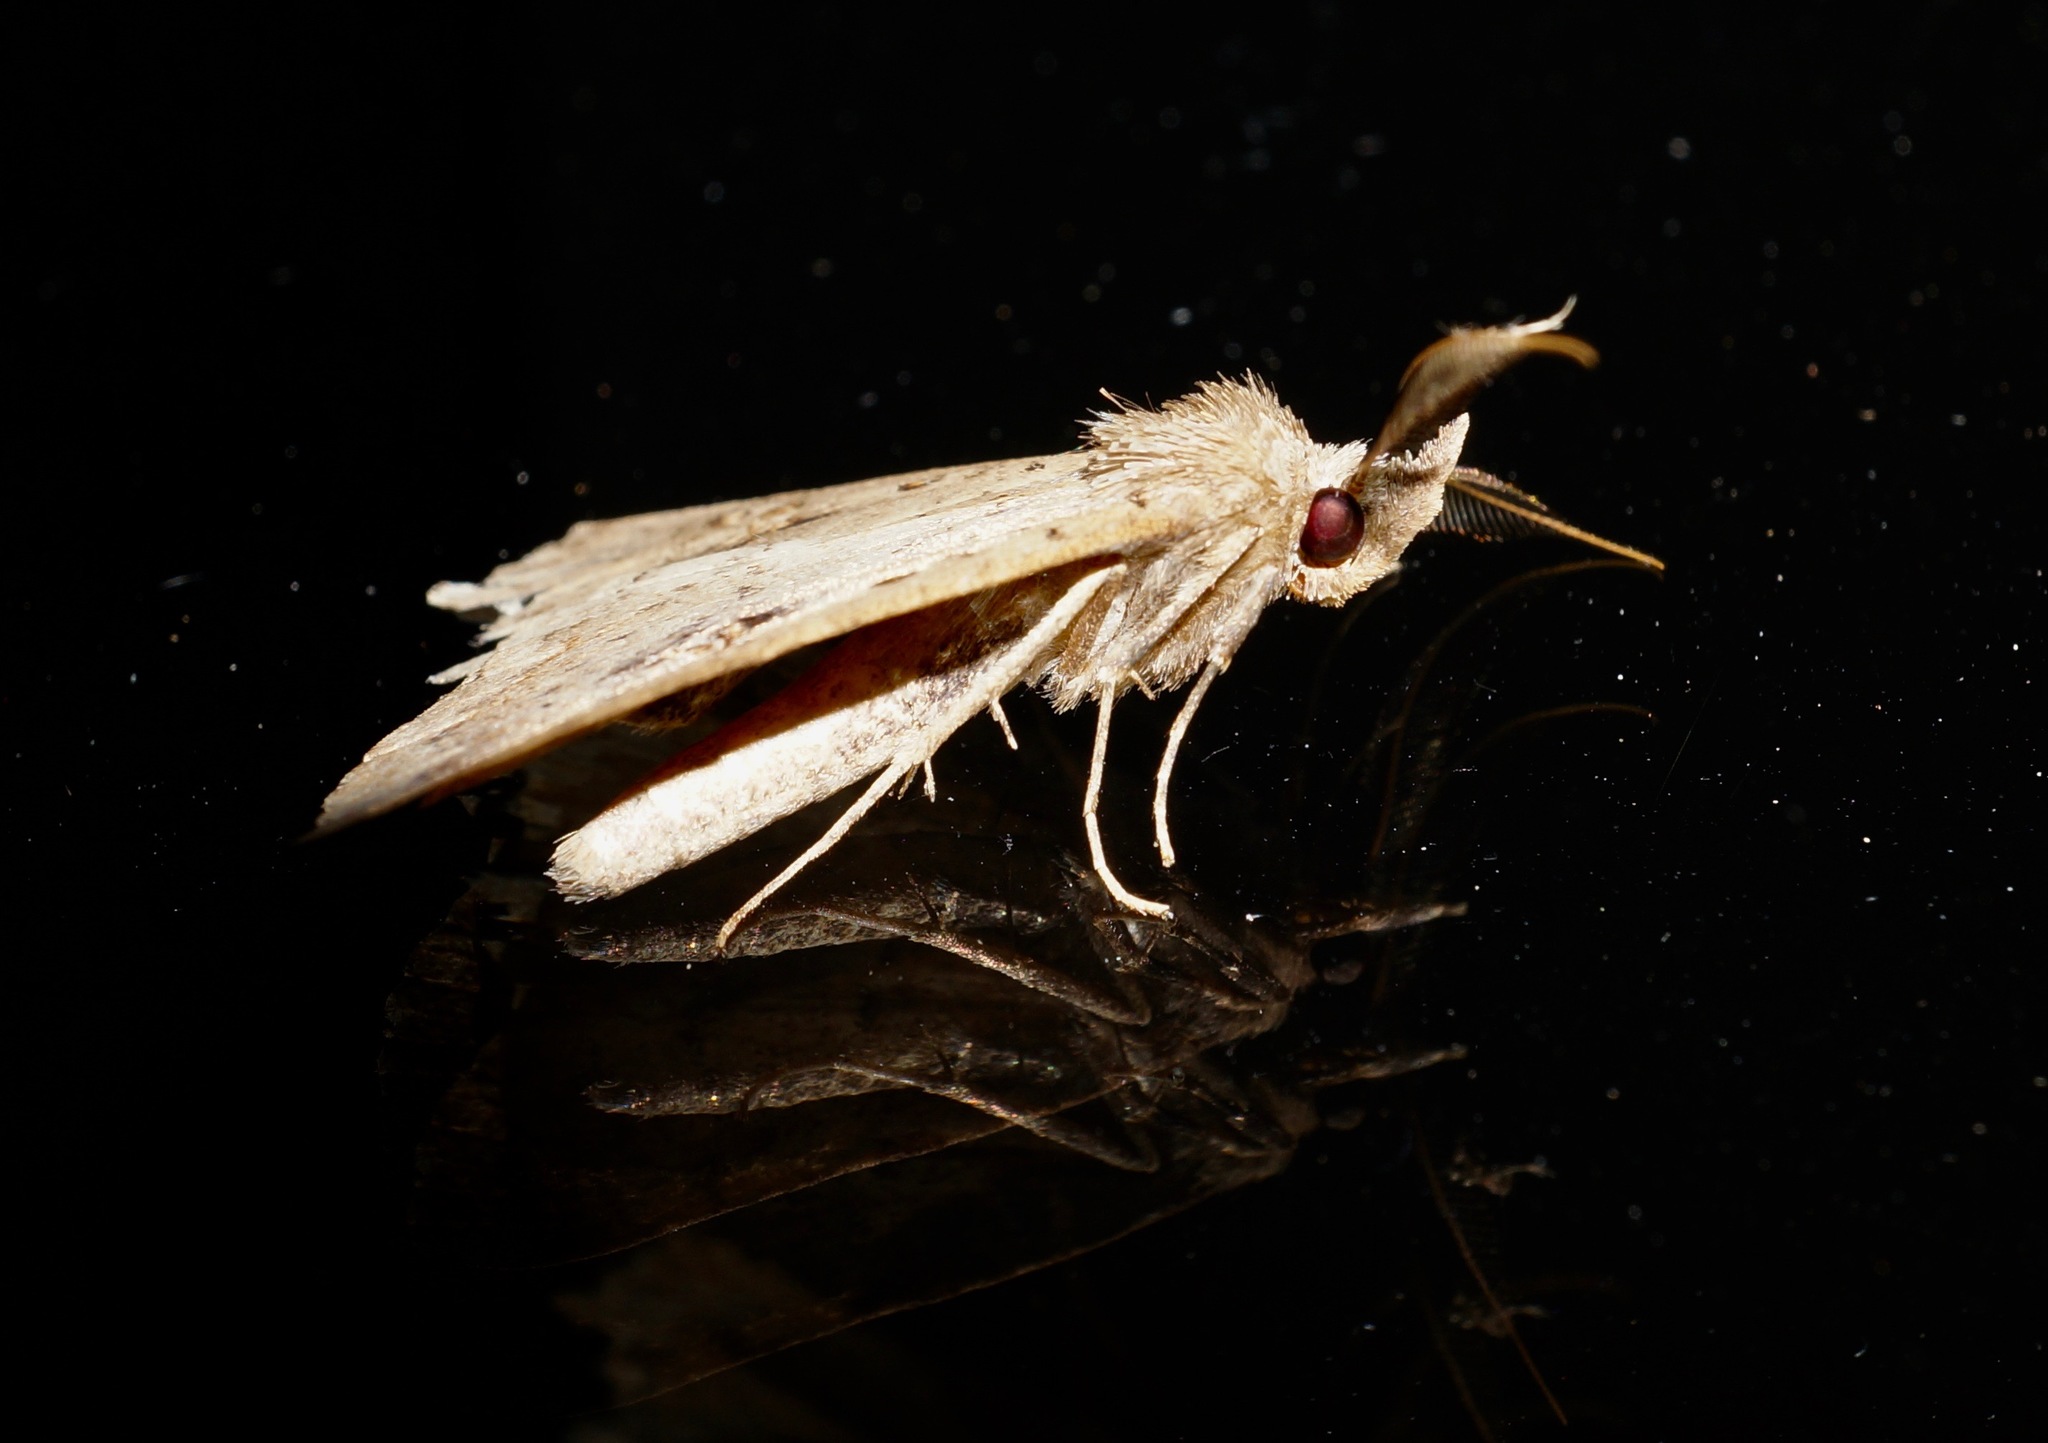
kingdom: Animalia
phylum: Arthropoda
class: Insecta
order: Lepidoptera
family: Erebidae
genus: Rhapsa
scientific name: Rhapsa scotosialis
